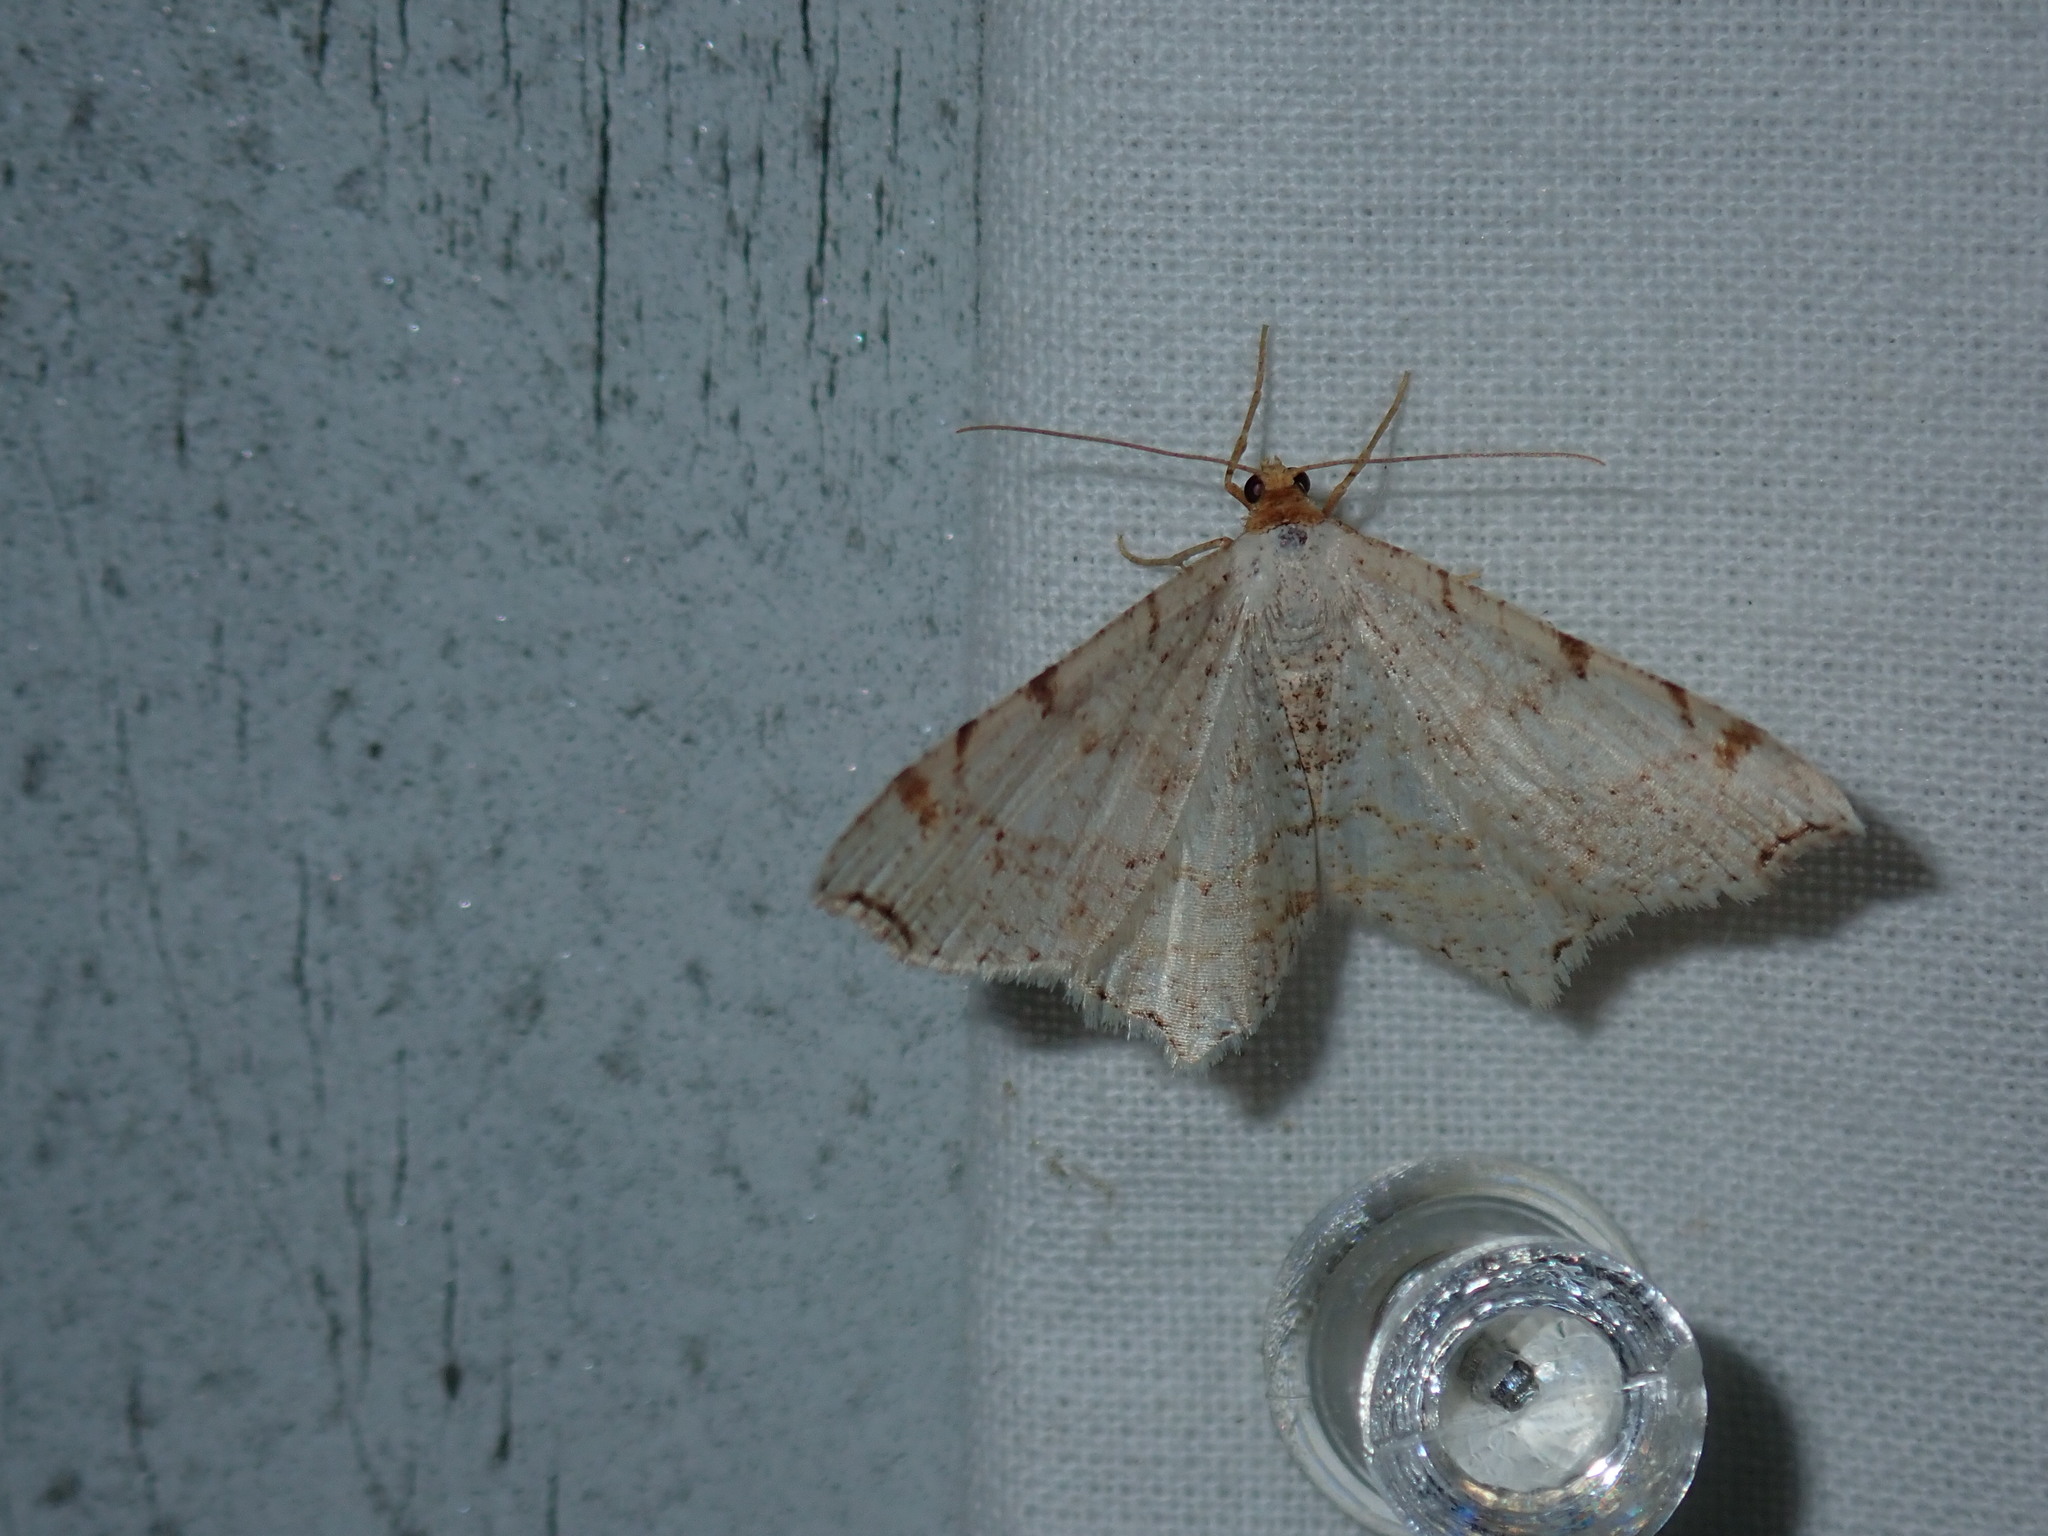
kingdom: Animalia
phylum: Arthropoda
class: Insecta
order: Lepidoptera
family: Geometridae
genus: Macaria
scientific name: Macaria bisignata
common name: Red-headed inchworm
